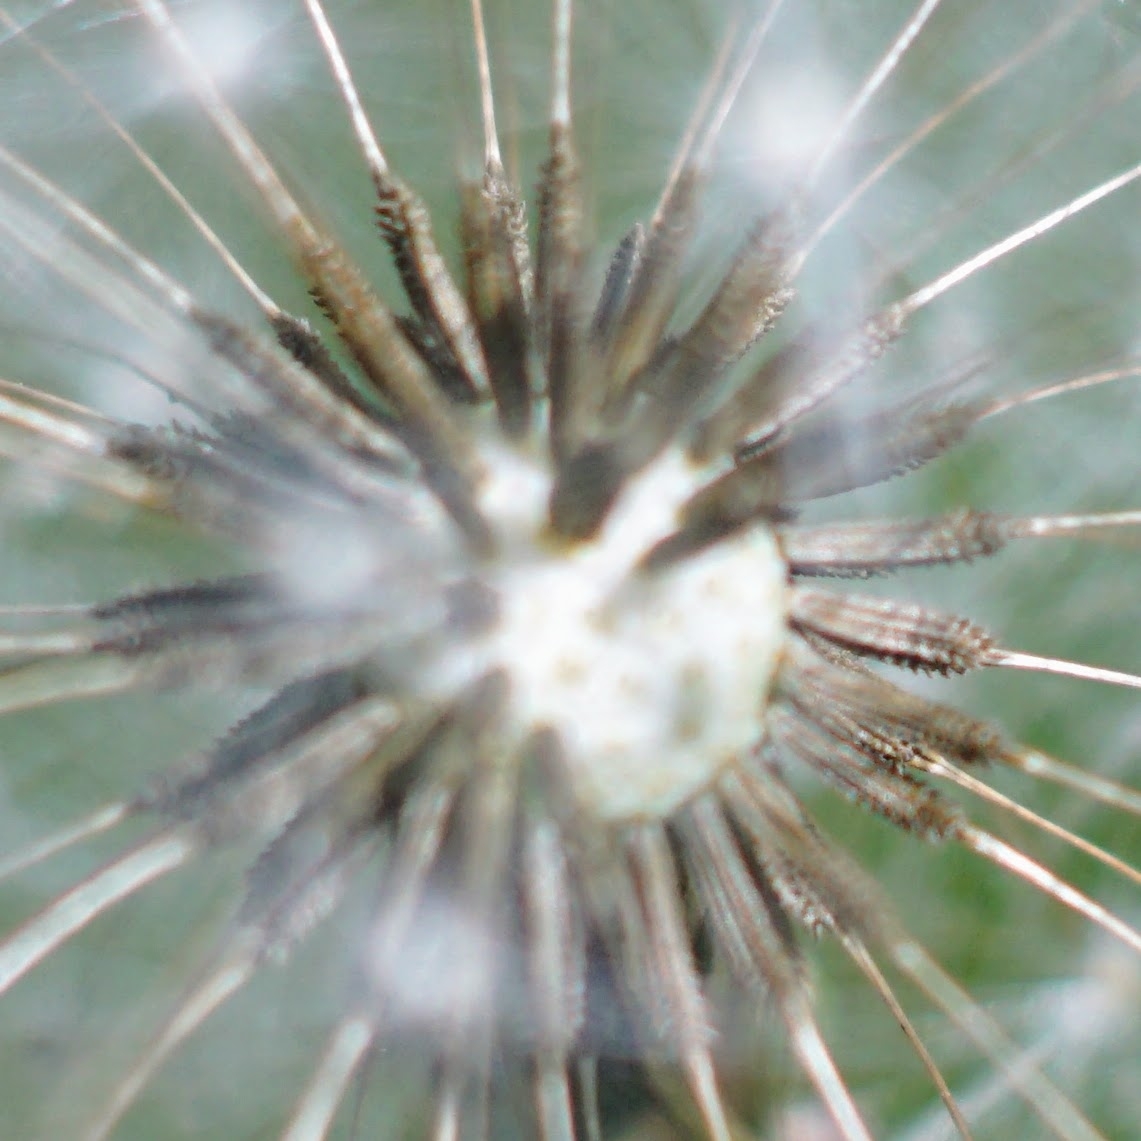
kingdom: Plantae
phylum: Tracheophyta
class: Magnoliopsida
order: Asterales
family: Asteraceae
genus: Taraxacum
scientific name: Taraxacum officinale
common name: Common dandelion
